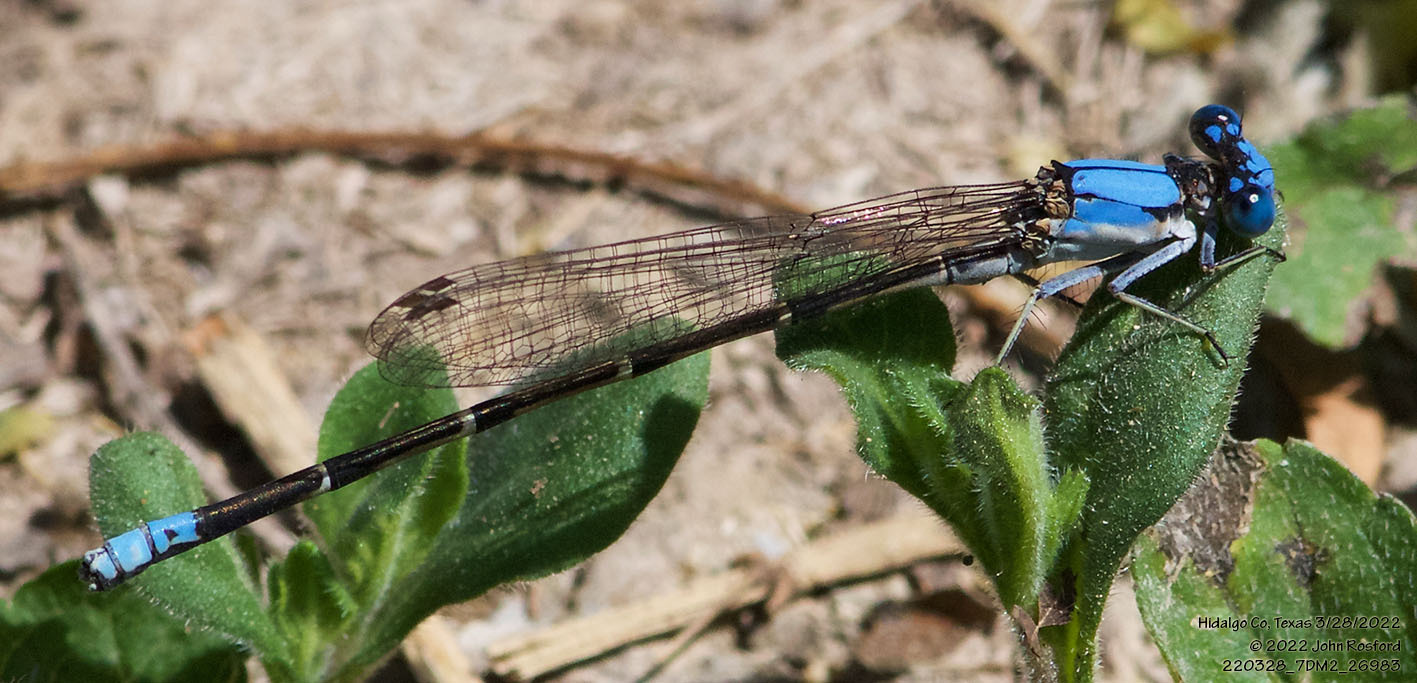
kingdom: Animalia
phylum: Arthropoda
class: Insecta
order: Odonata
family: Coenagrionidae
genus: Argia
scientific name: Argia apicalis
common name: Blue-fronted dancer
